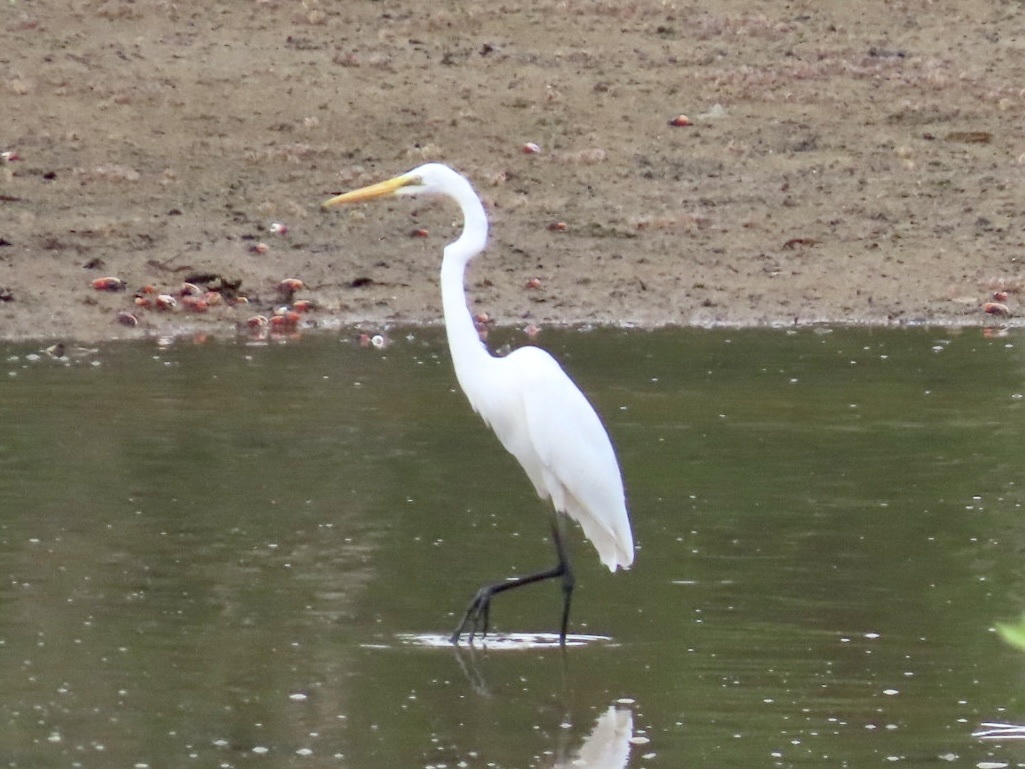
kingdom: Animalia
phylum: Chordata
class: Aves
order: Pelecaniformes
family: Ardeidae
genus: Ardea
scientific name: Ardea alba
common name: Great egret
